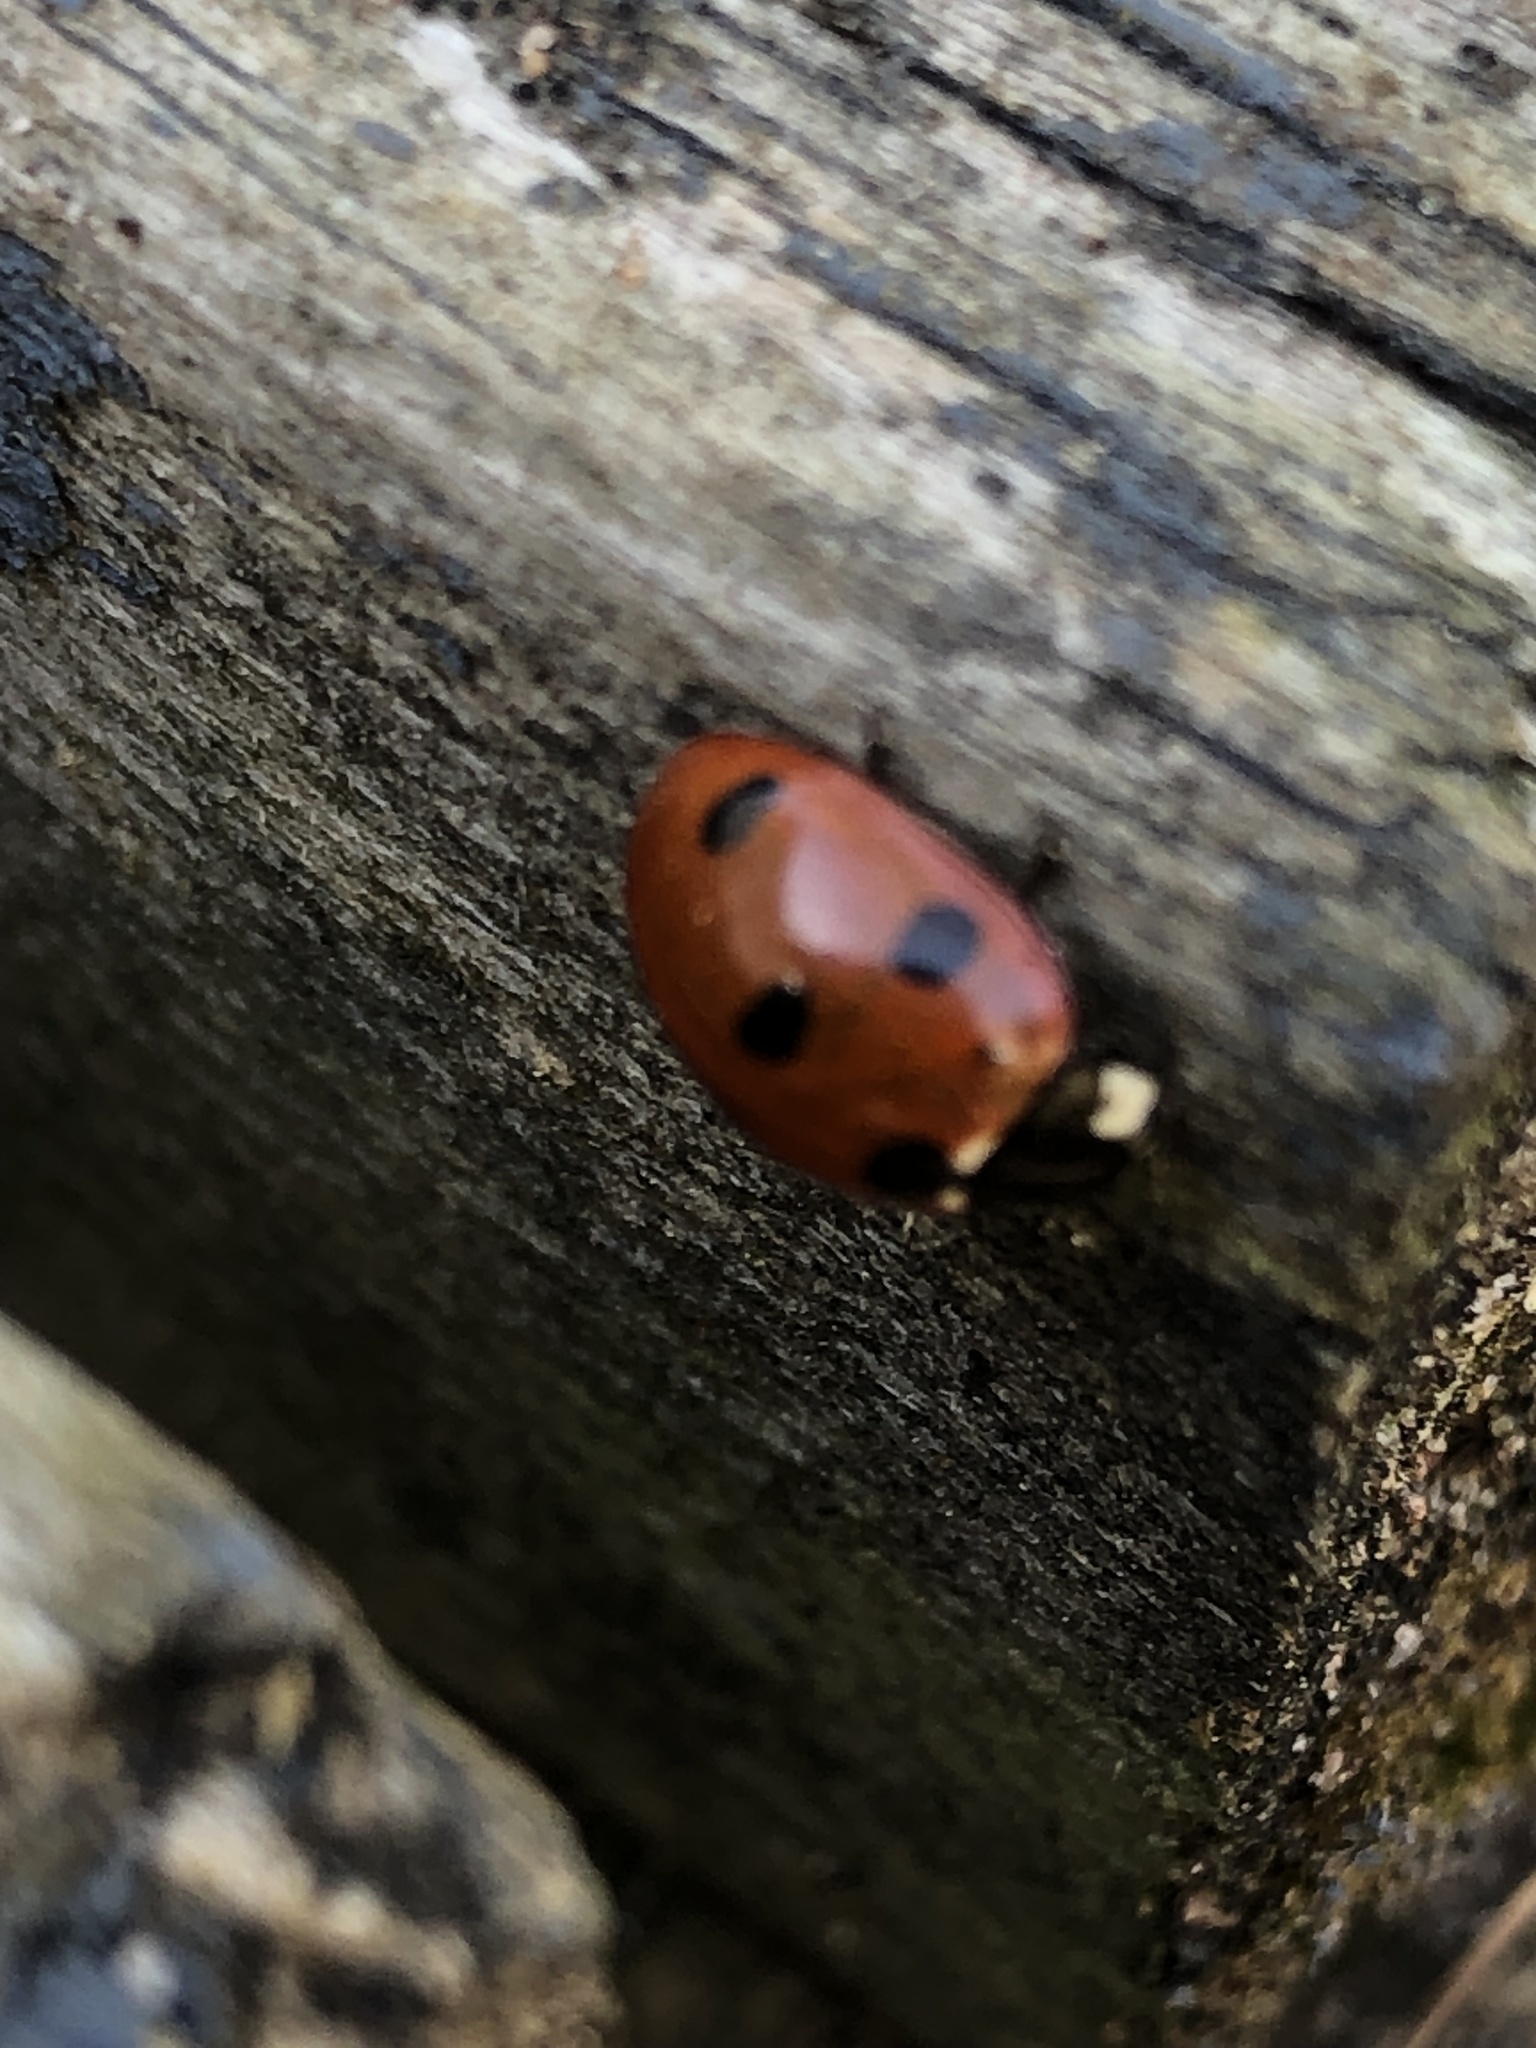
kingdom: Animalia
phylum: Arthropoda
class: Insecta
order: Coleoptera
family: Coccinellidae
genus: Coccinella
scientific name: Coccinella septempunctata
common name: Sevenspotted lady beetle
